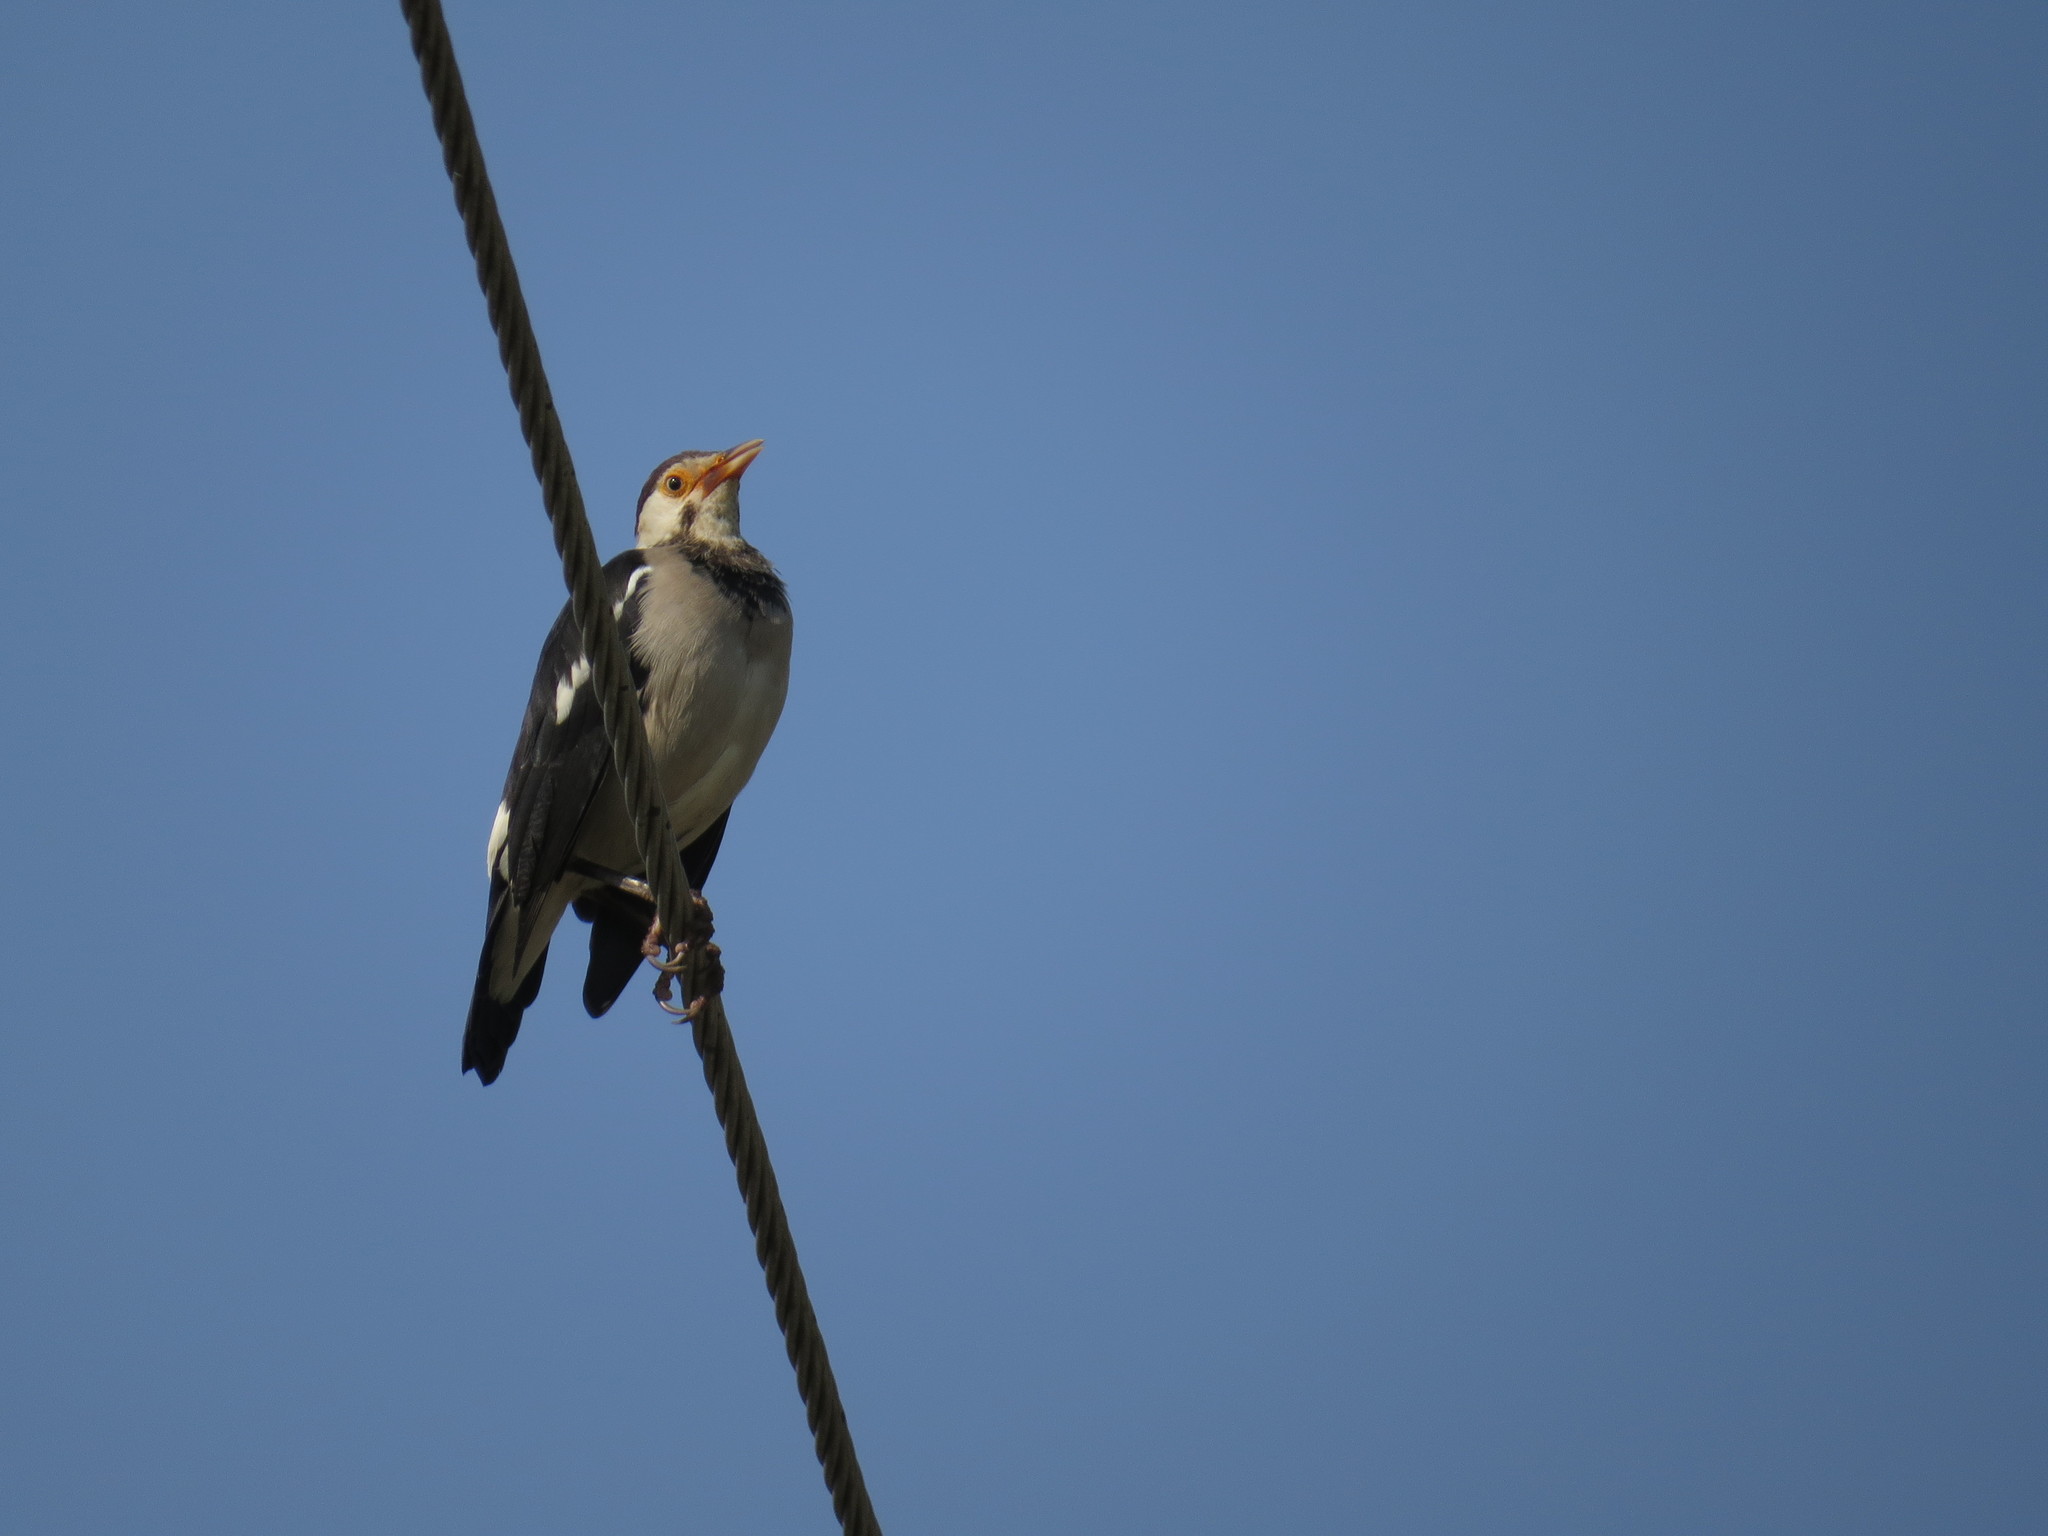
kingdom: Animalia
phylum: Chordata
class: Aves
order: Passeriformes
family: Sturnidae
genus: Gracupica
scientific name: Gracupica contra
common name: Pied myna
